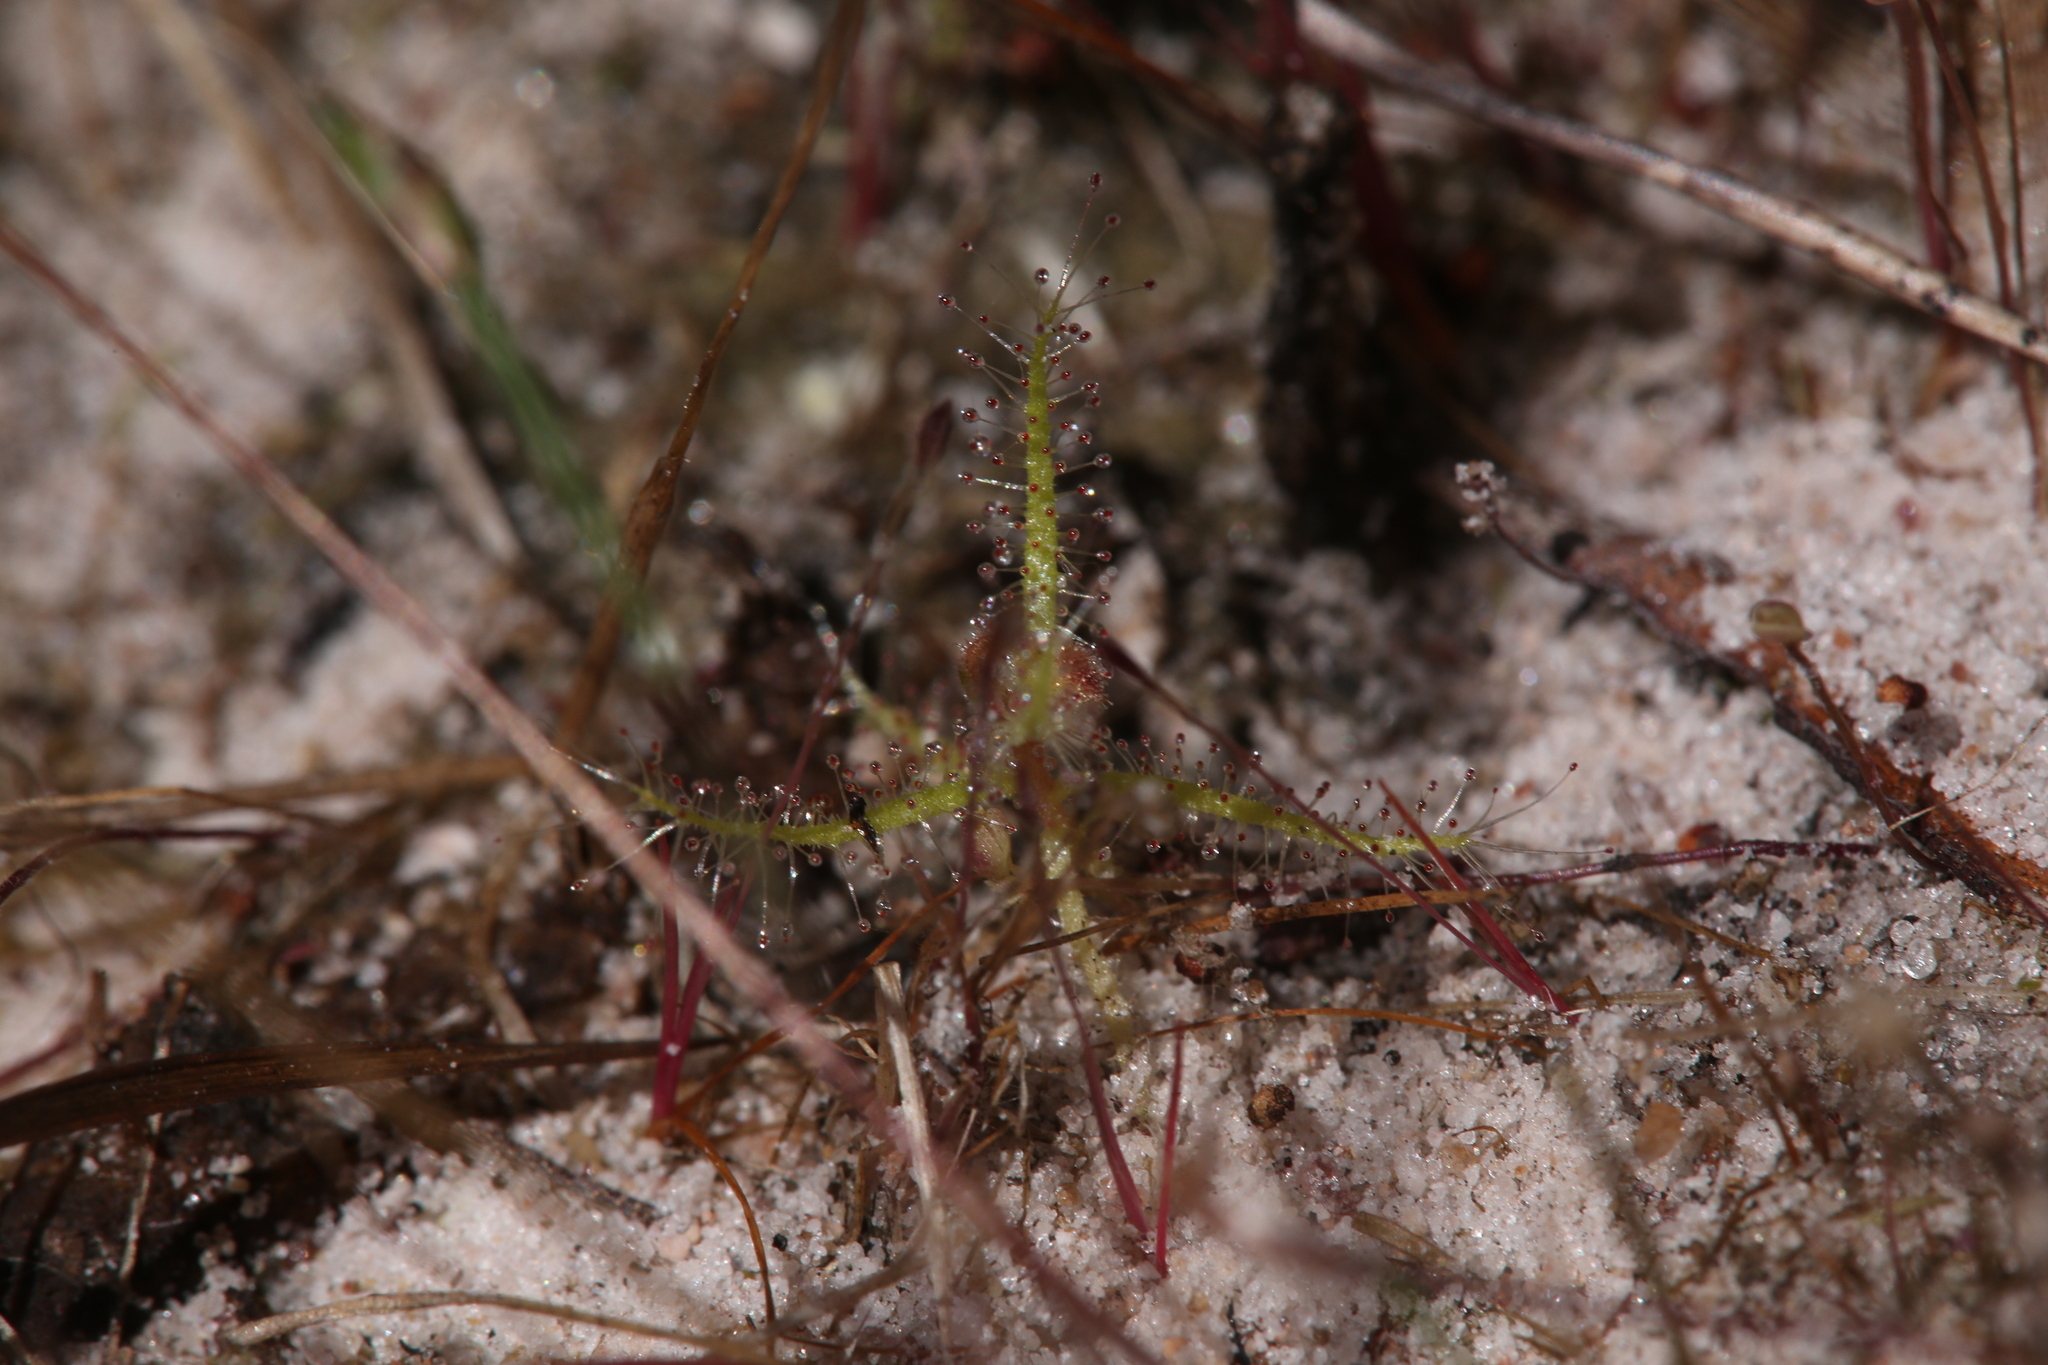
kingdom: Plantae
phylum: Tracheophyta
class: Magnoliopsida
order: Caryophyllales
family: Droseraceae
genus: Drosera
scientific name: Drosera aquatica
